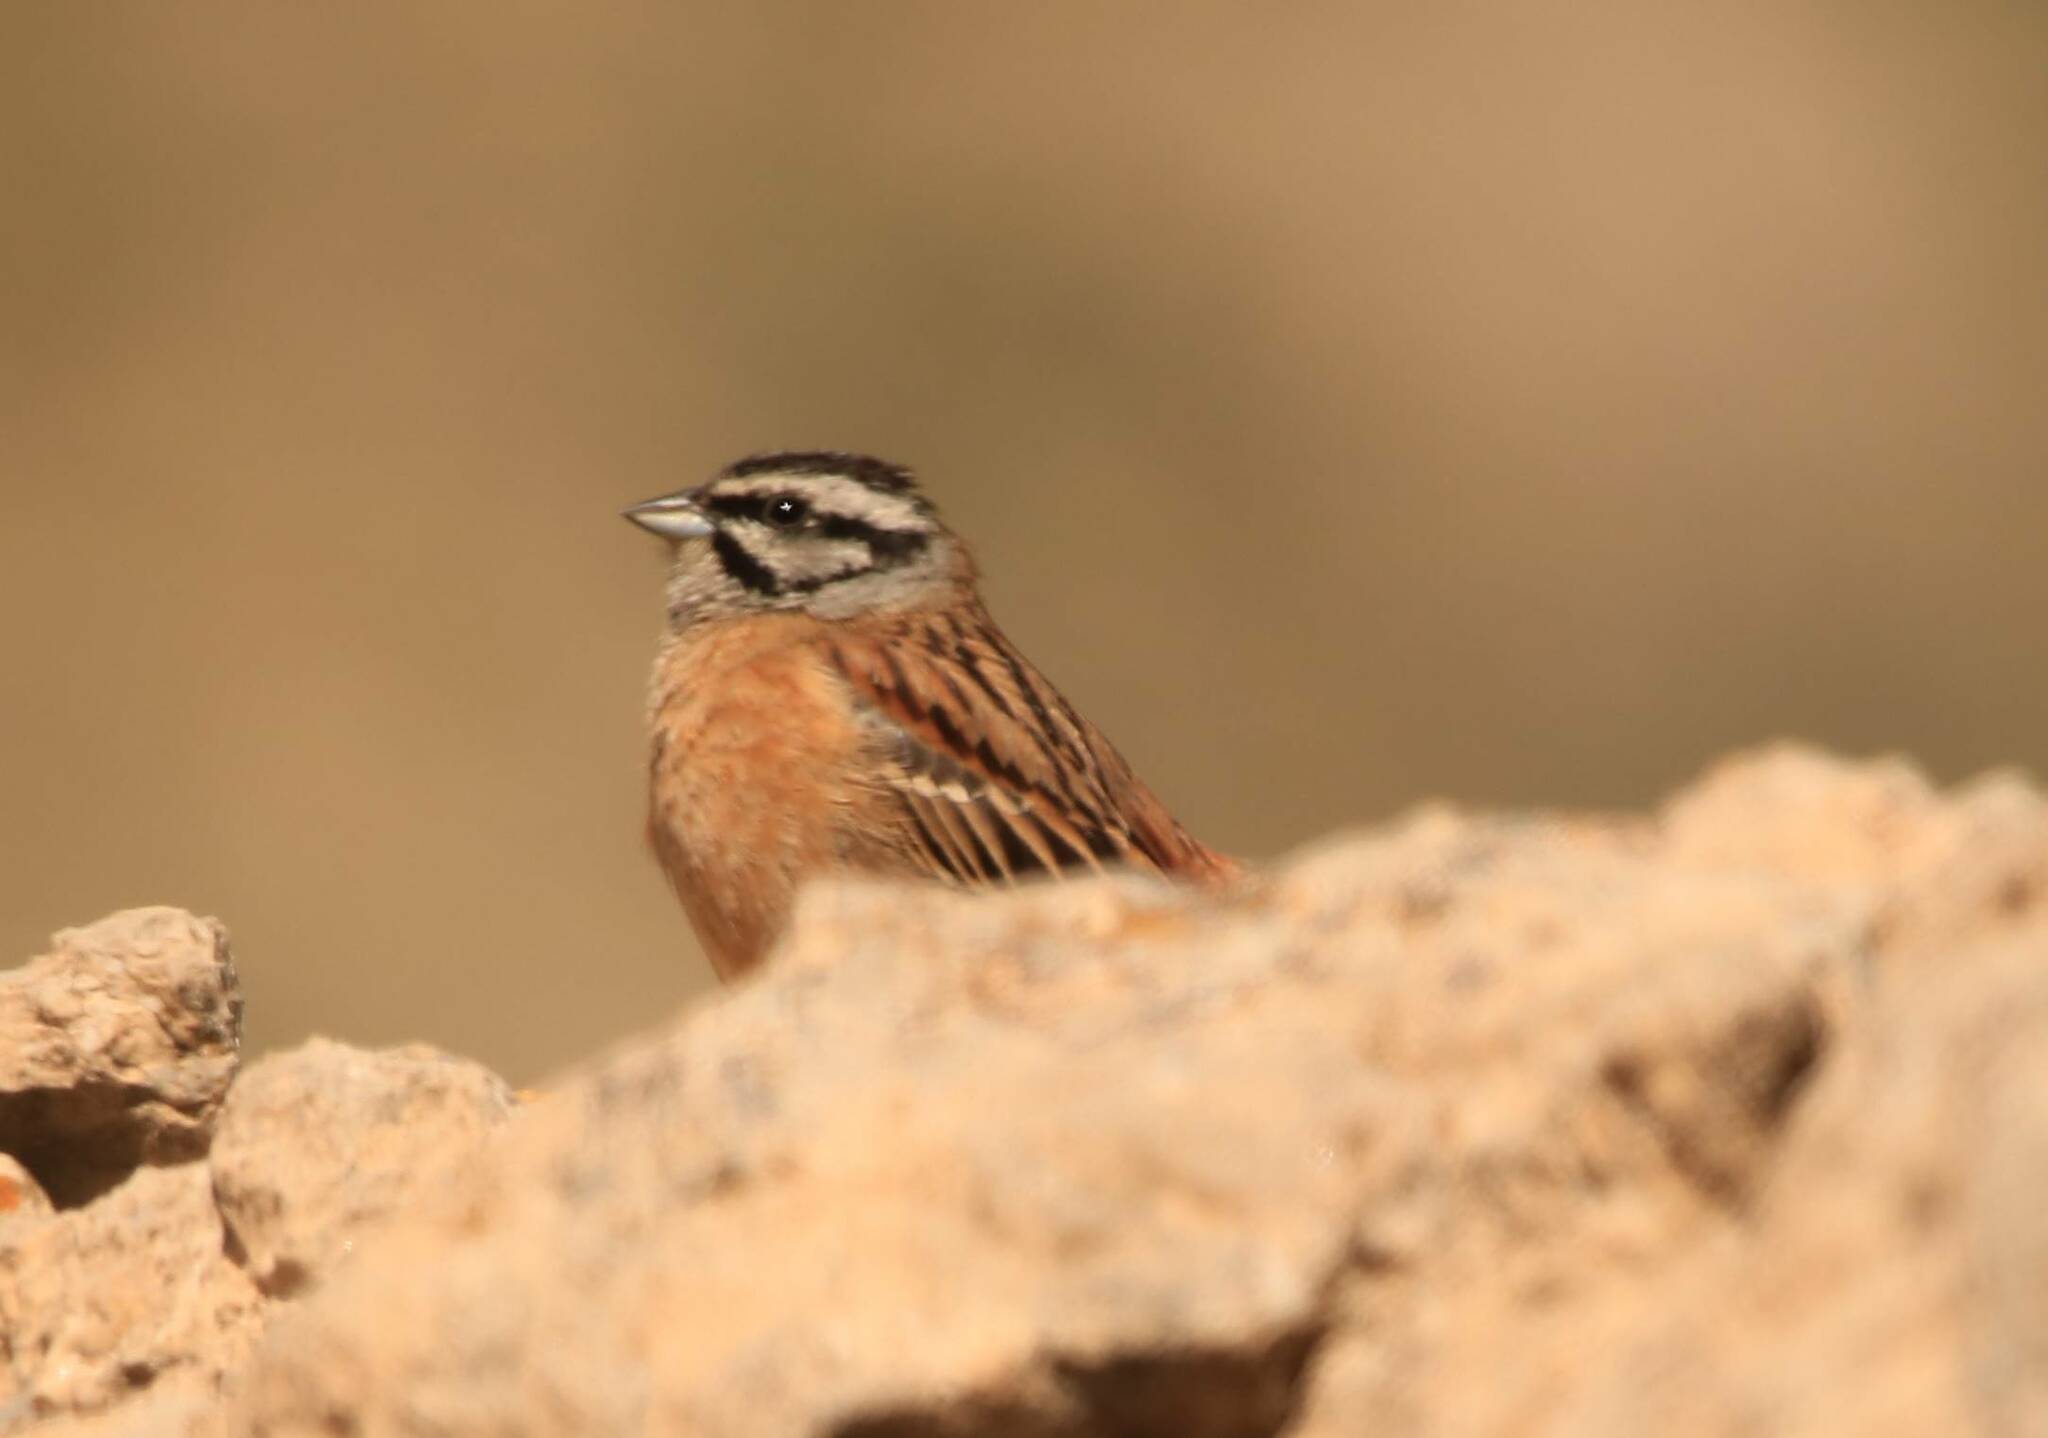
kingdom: Animalia
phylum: Chordata
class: Aves
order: Passeriformes
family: Emberizidae
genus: Emberiza
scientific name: Emberiza cia
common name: Rock bunting
